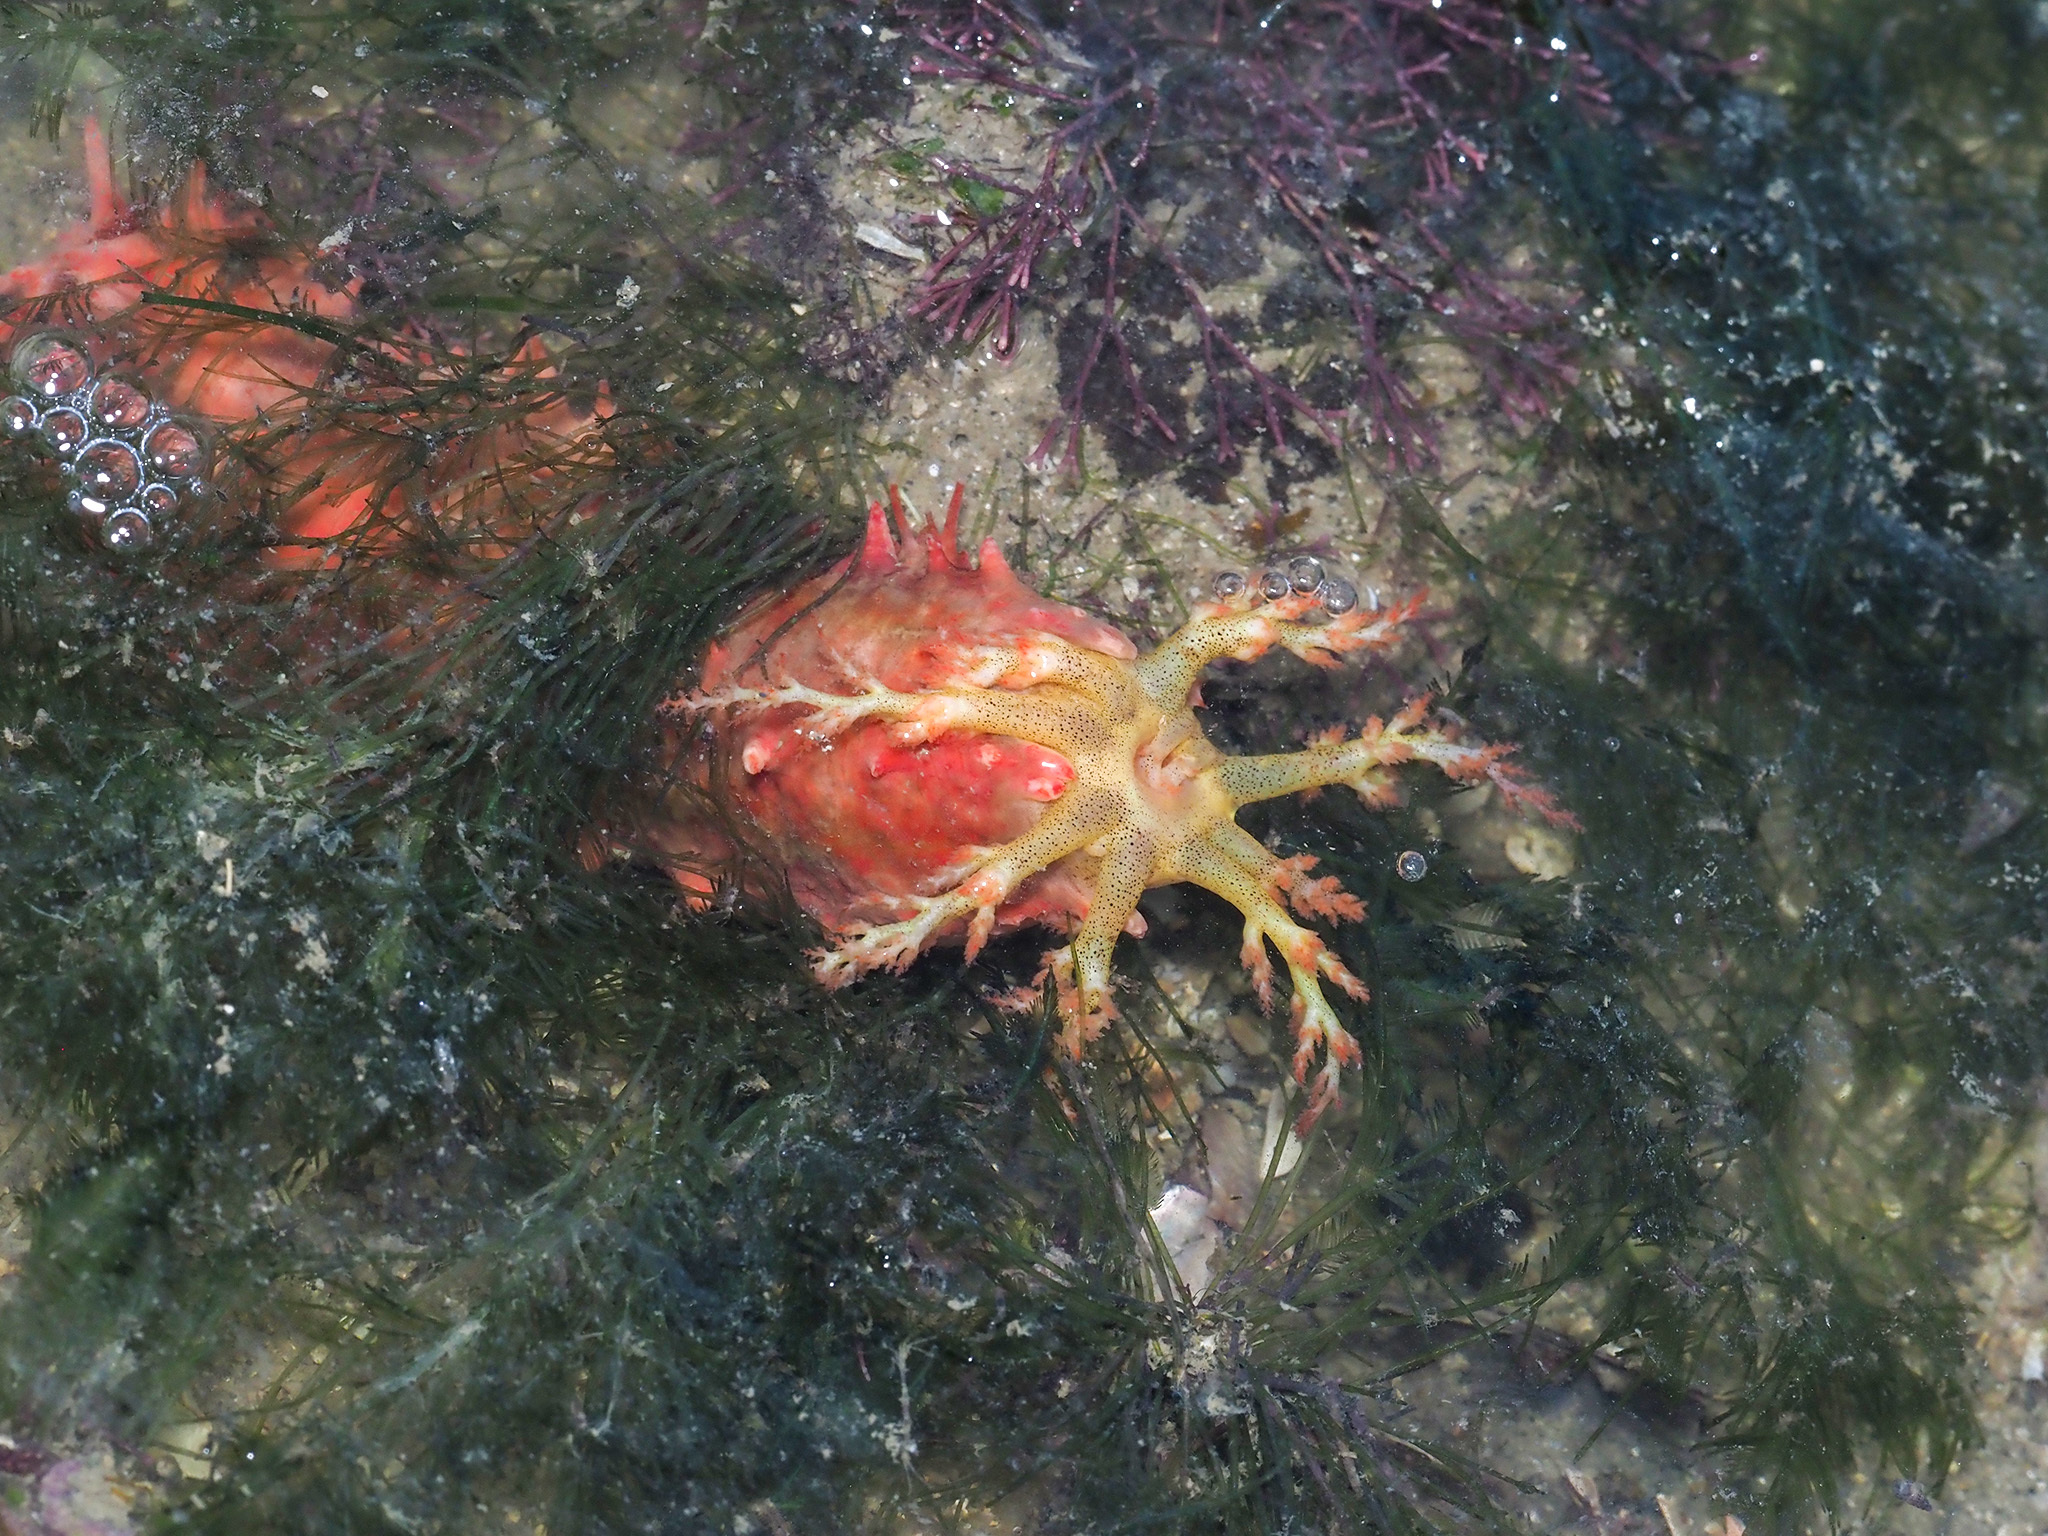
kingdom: Animalia
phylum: Echinodermata
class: Holothuroidea
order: Dendrochirotida
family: Cucumariidae
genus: Cercodemas
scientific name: Cercodemas anceps
